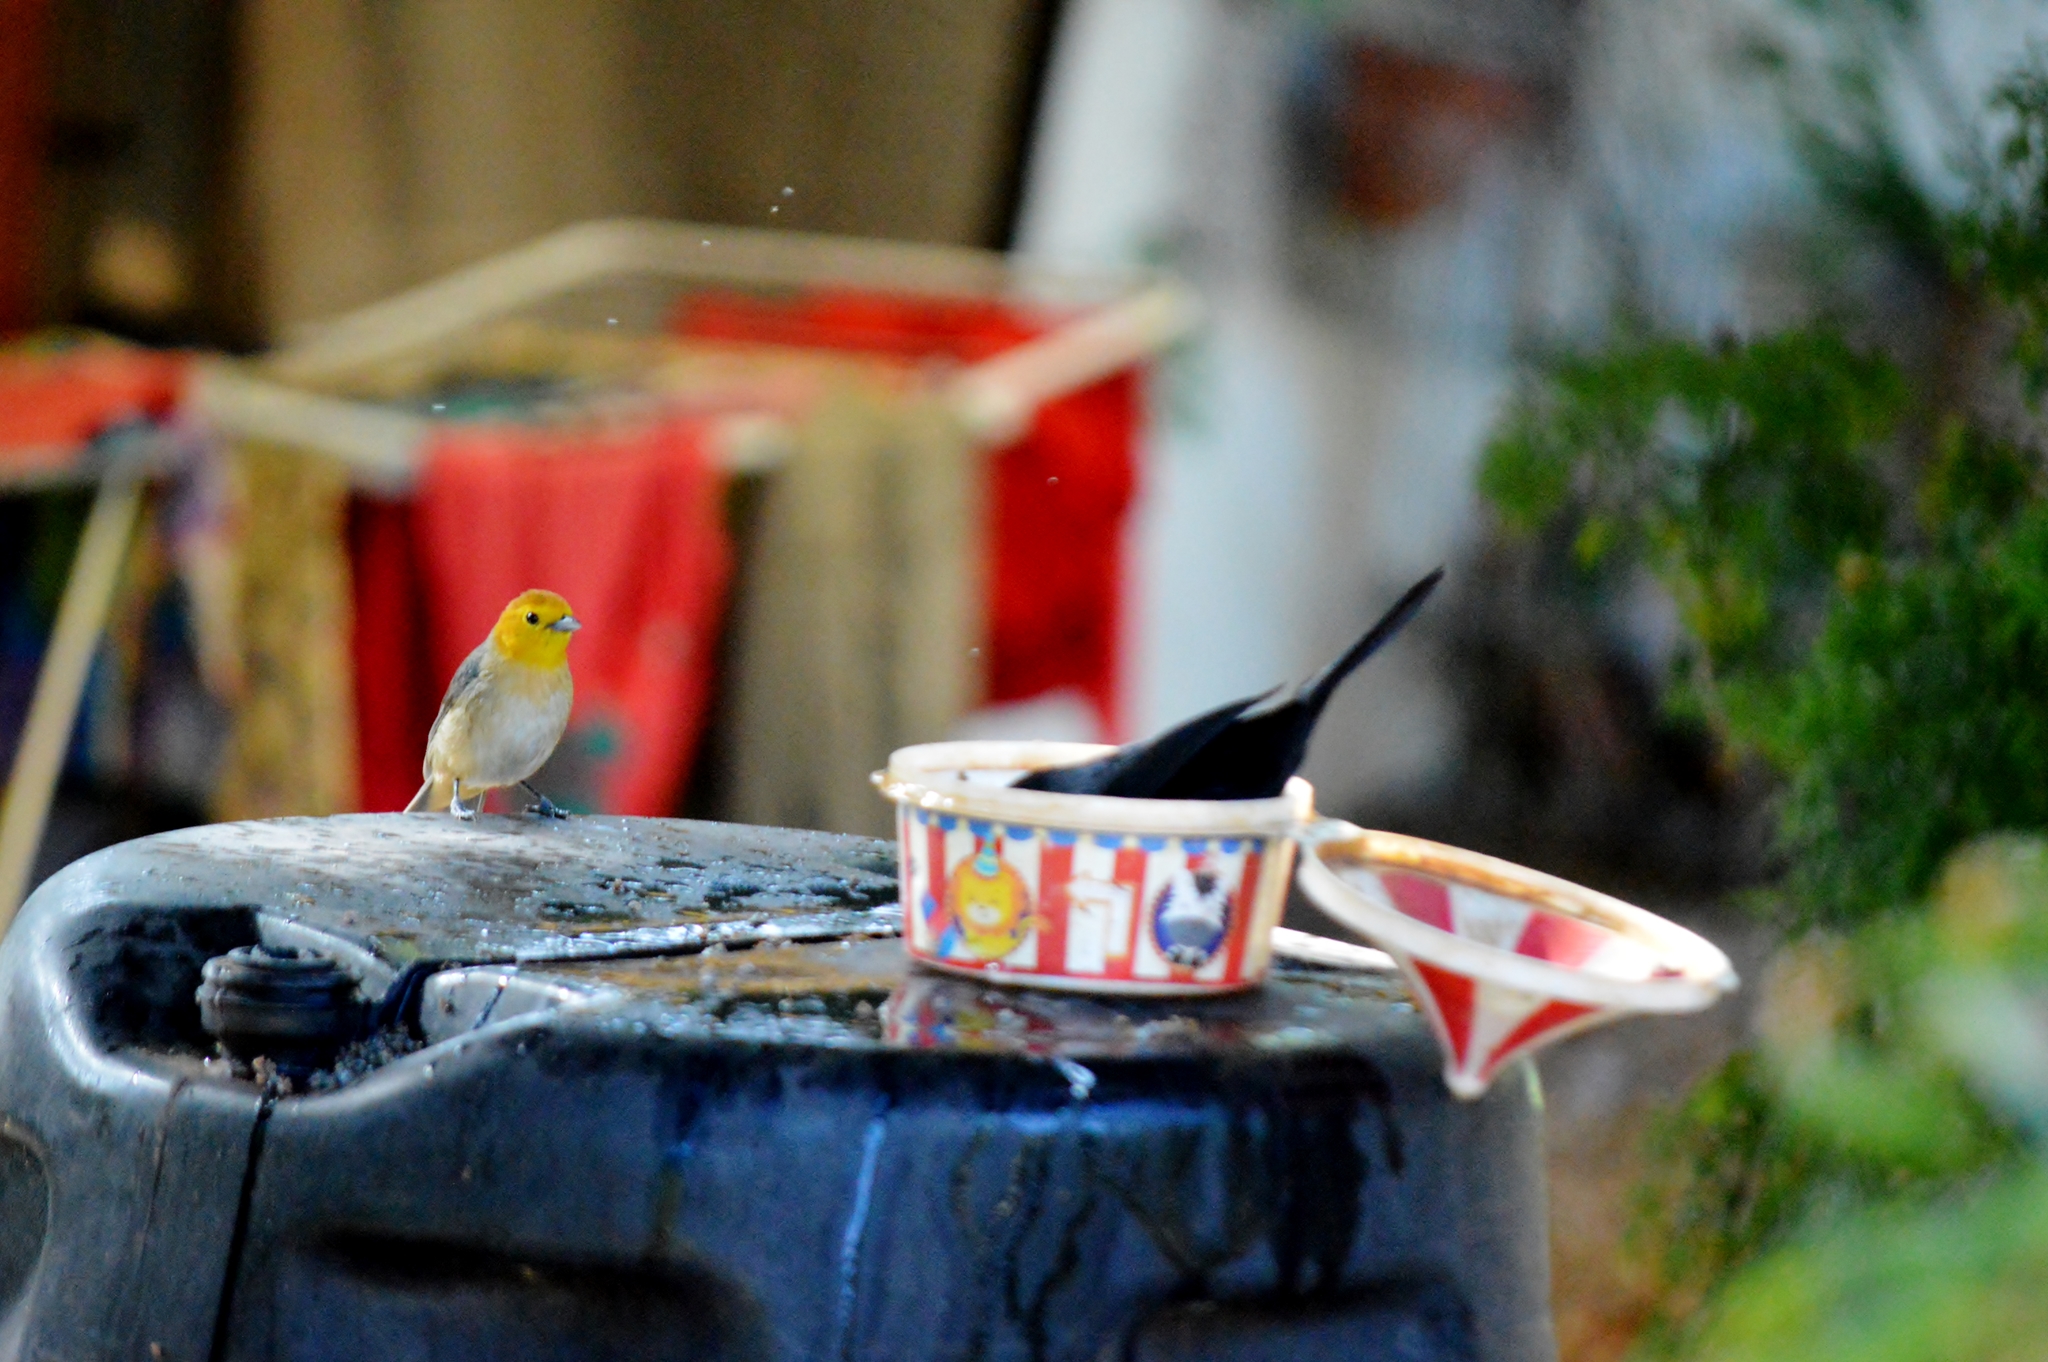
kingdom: Animalia
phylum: Chordata
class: Aves
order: Passeriformes
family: Thraupidae
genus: Tachyphonus
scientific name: Tachyphonus rufus
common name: White-lined tanager
